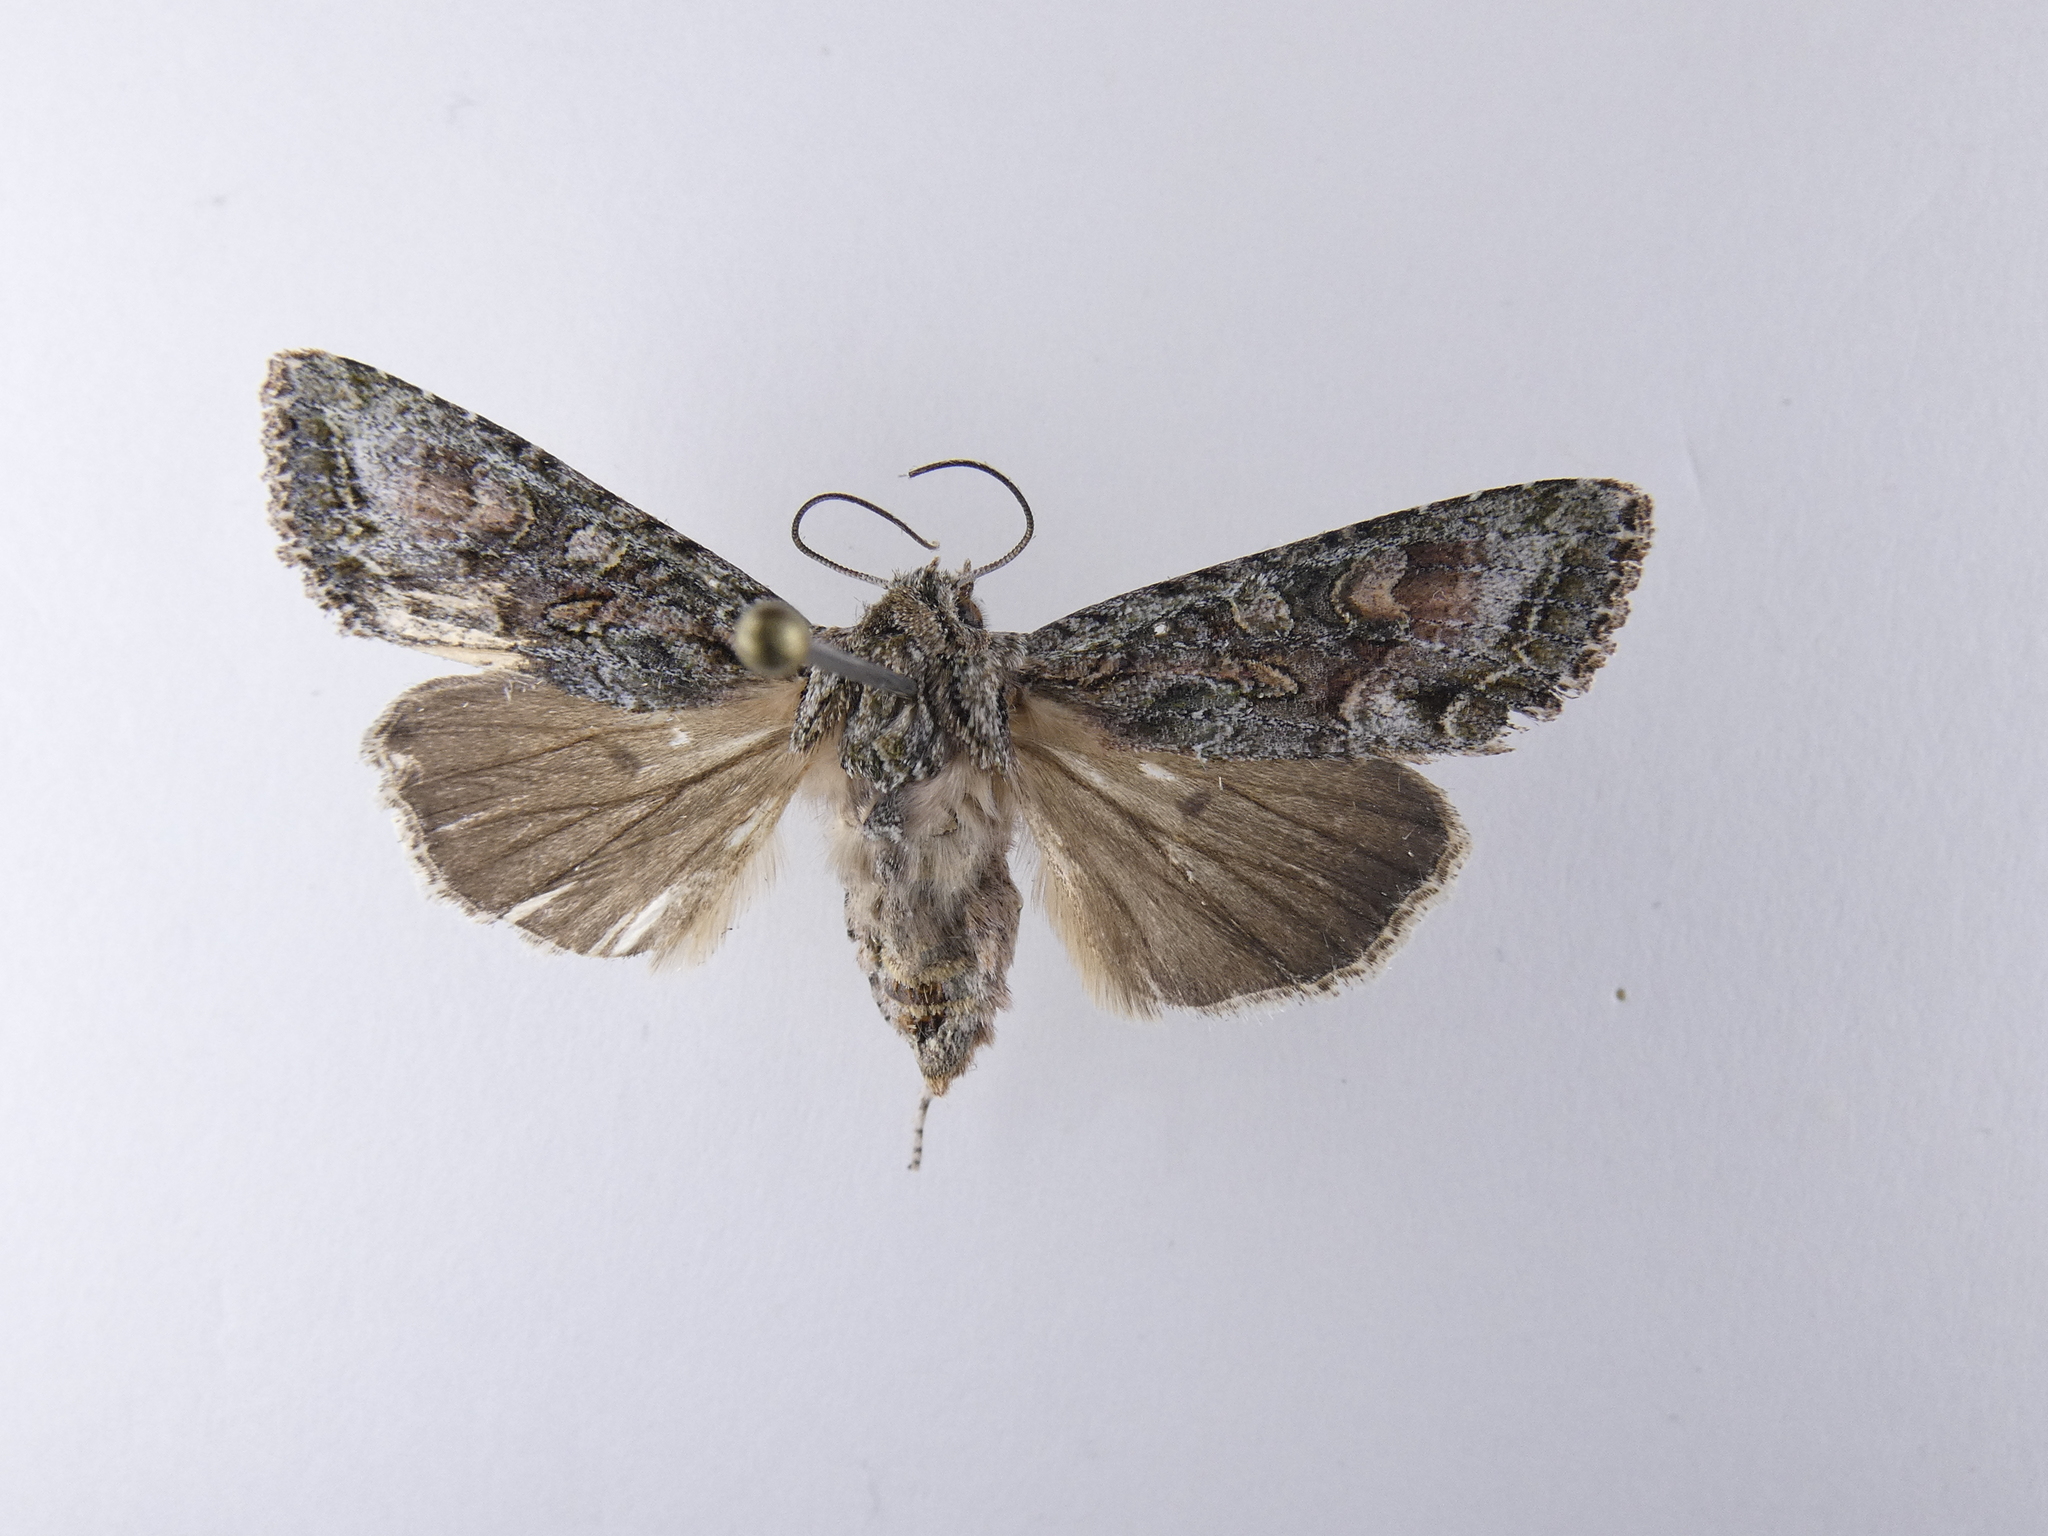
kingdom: Animalia
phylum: Arthropoda
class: Insecta
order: Lepidoptera
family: Noctuidae
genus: Ichneutica
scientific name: Ichneutica mutans
